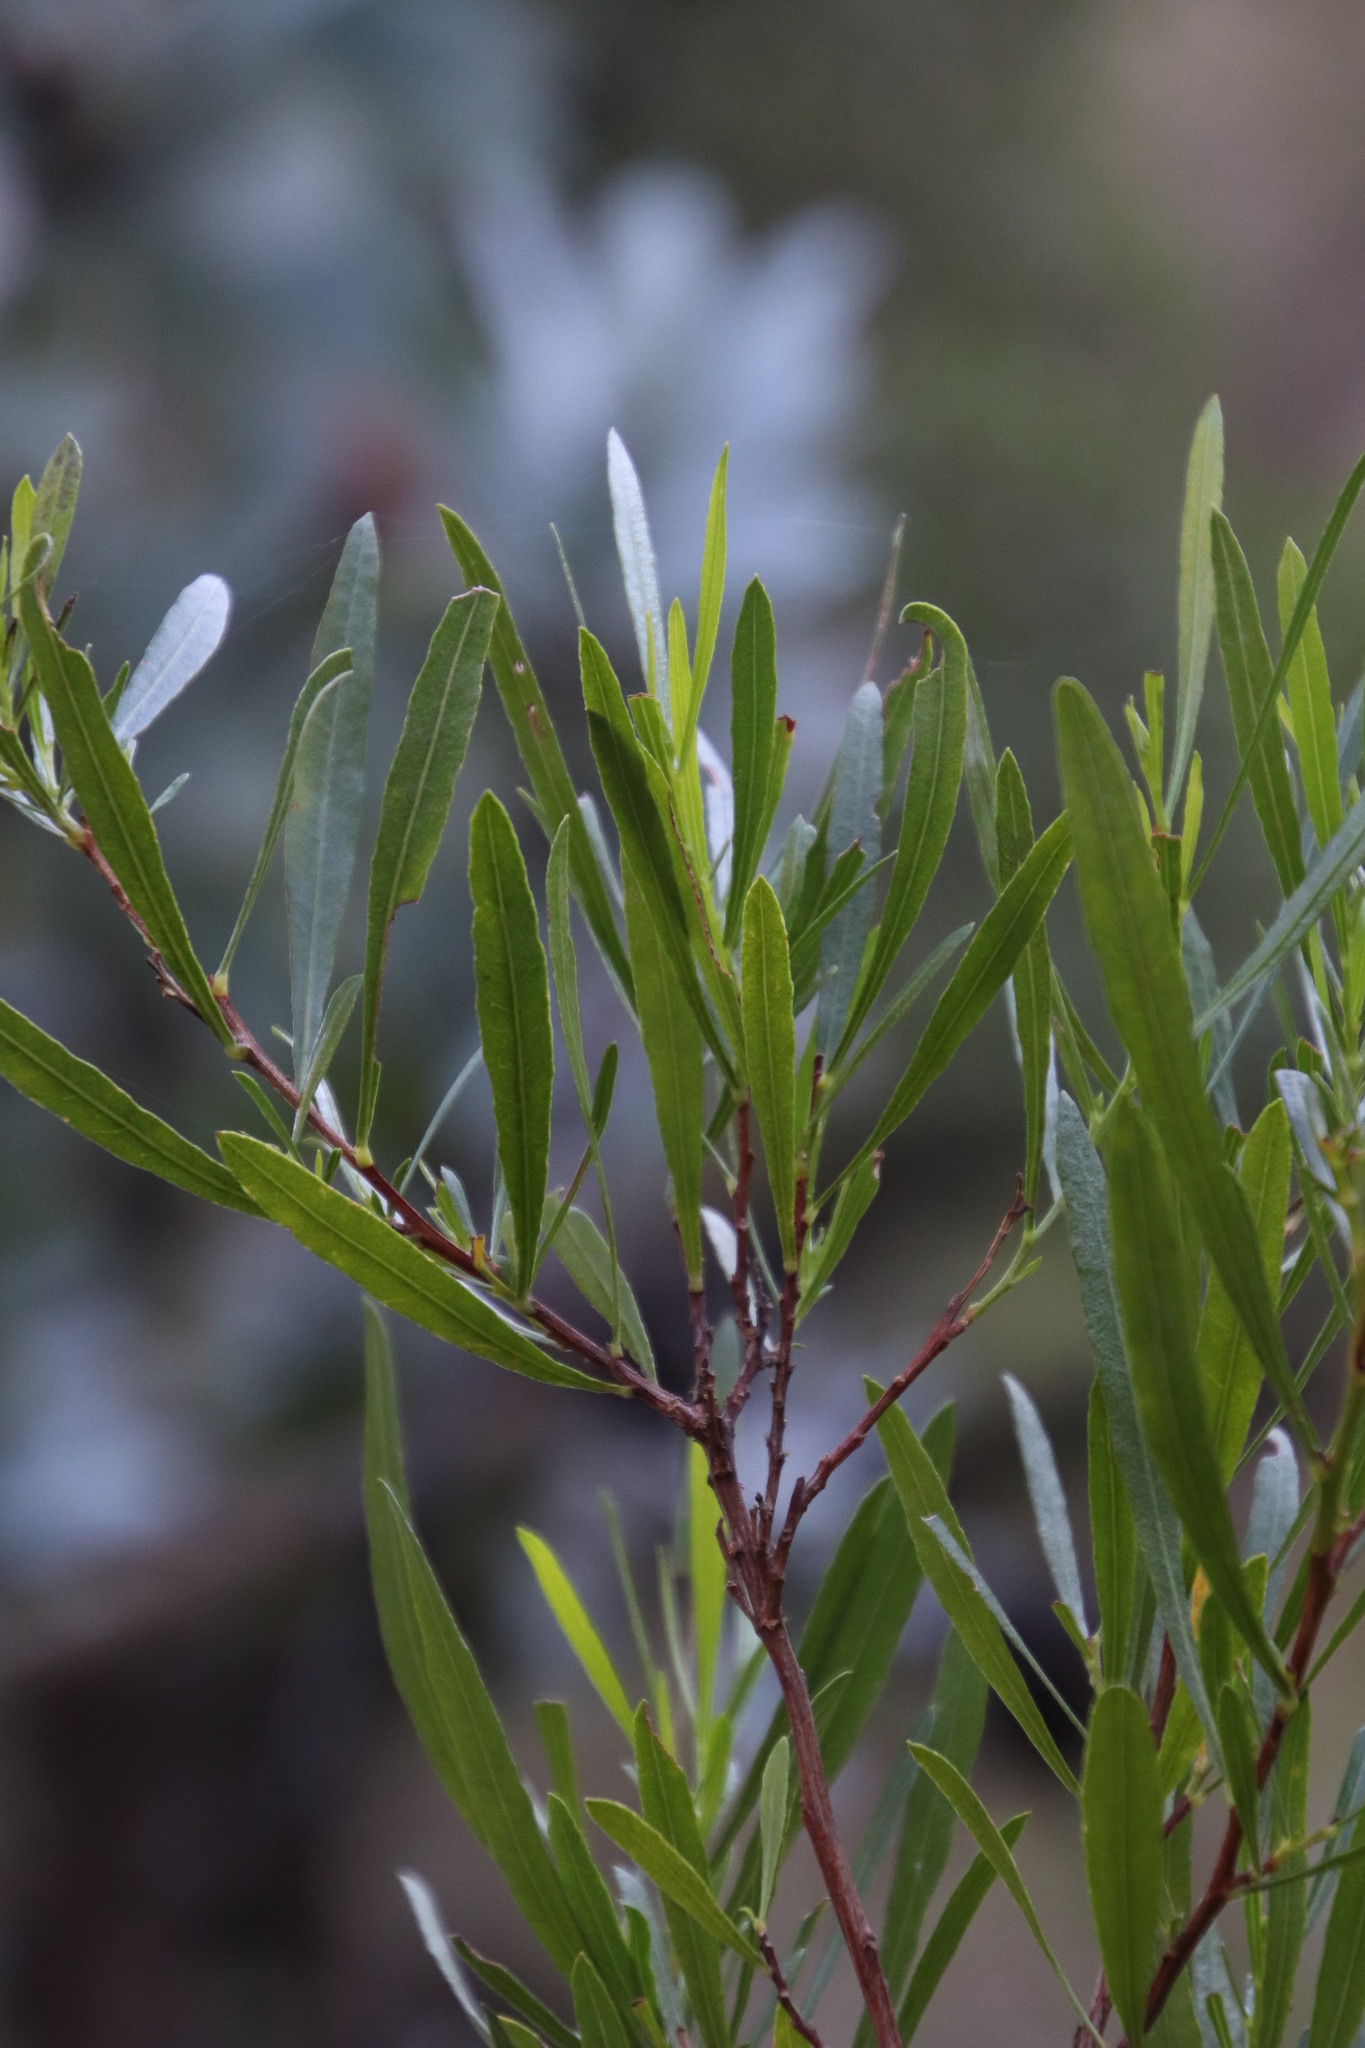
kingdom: Plantae
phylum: Tracheophyta
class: Magnoliopsida
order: Sapindales
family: Sapindaceae
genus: Dodonaea
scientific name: Dodonaea viscosa
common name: Hopbush
